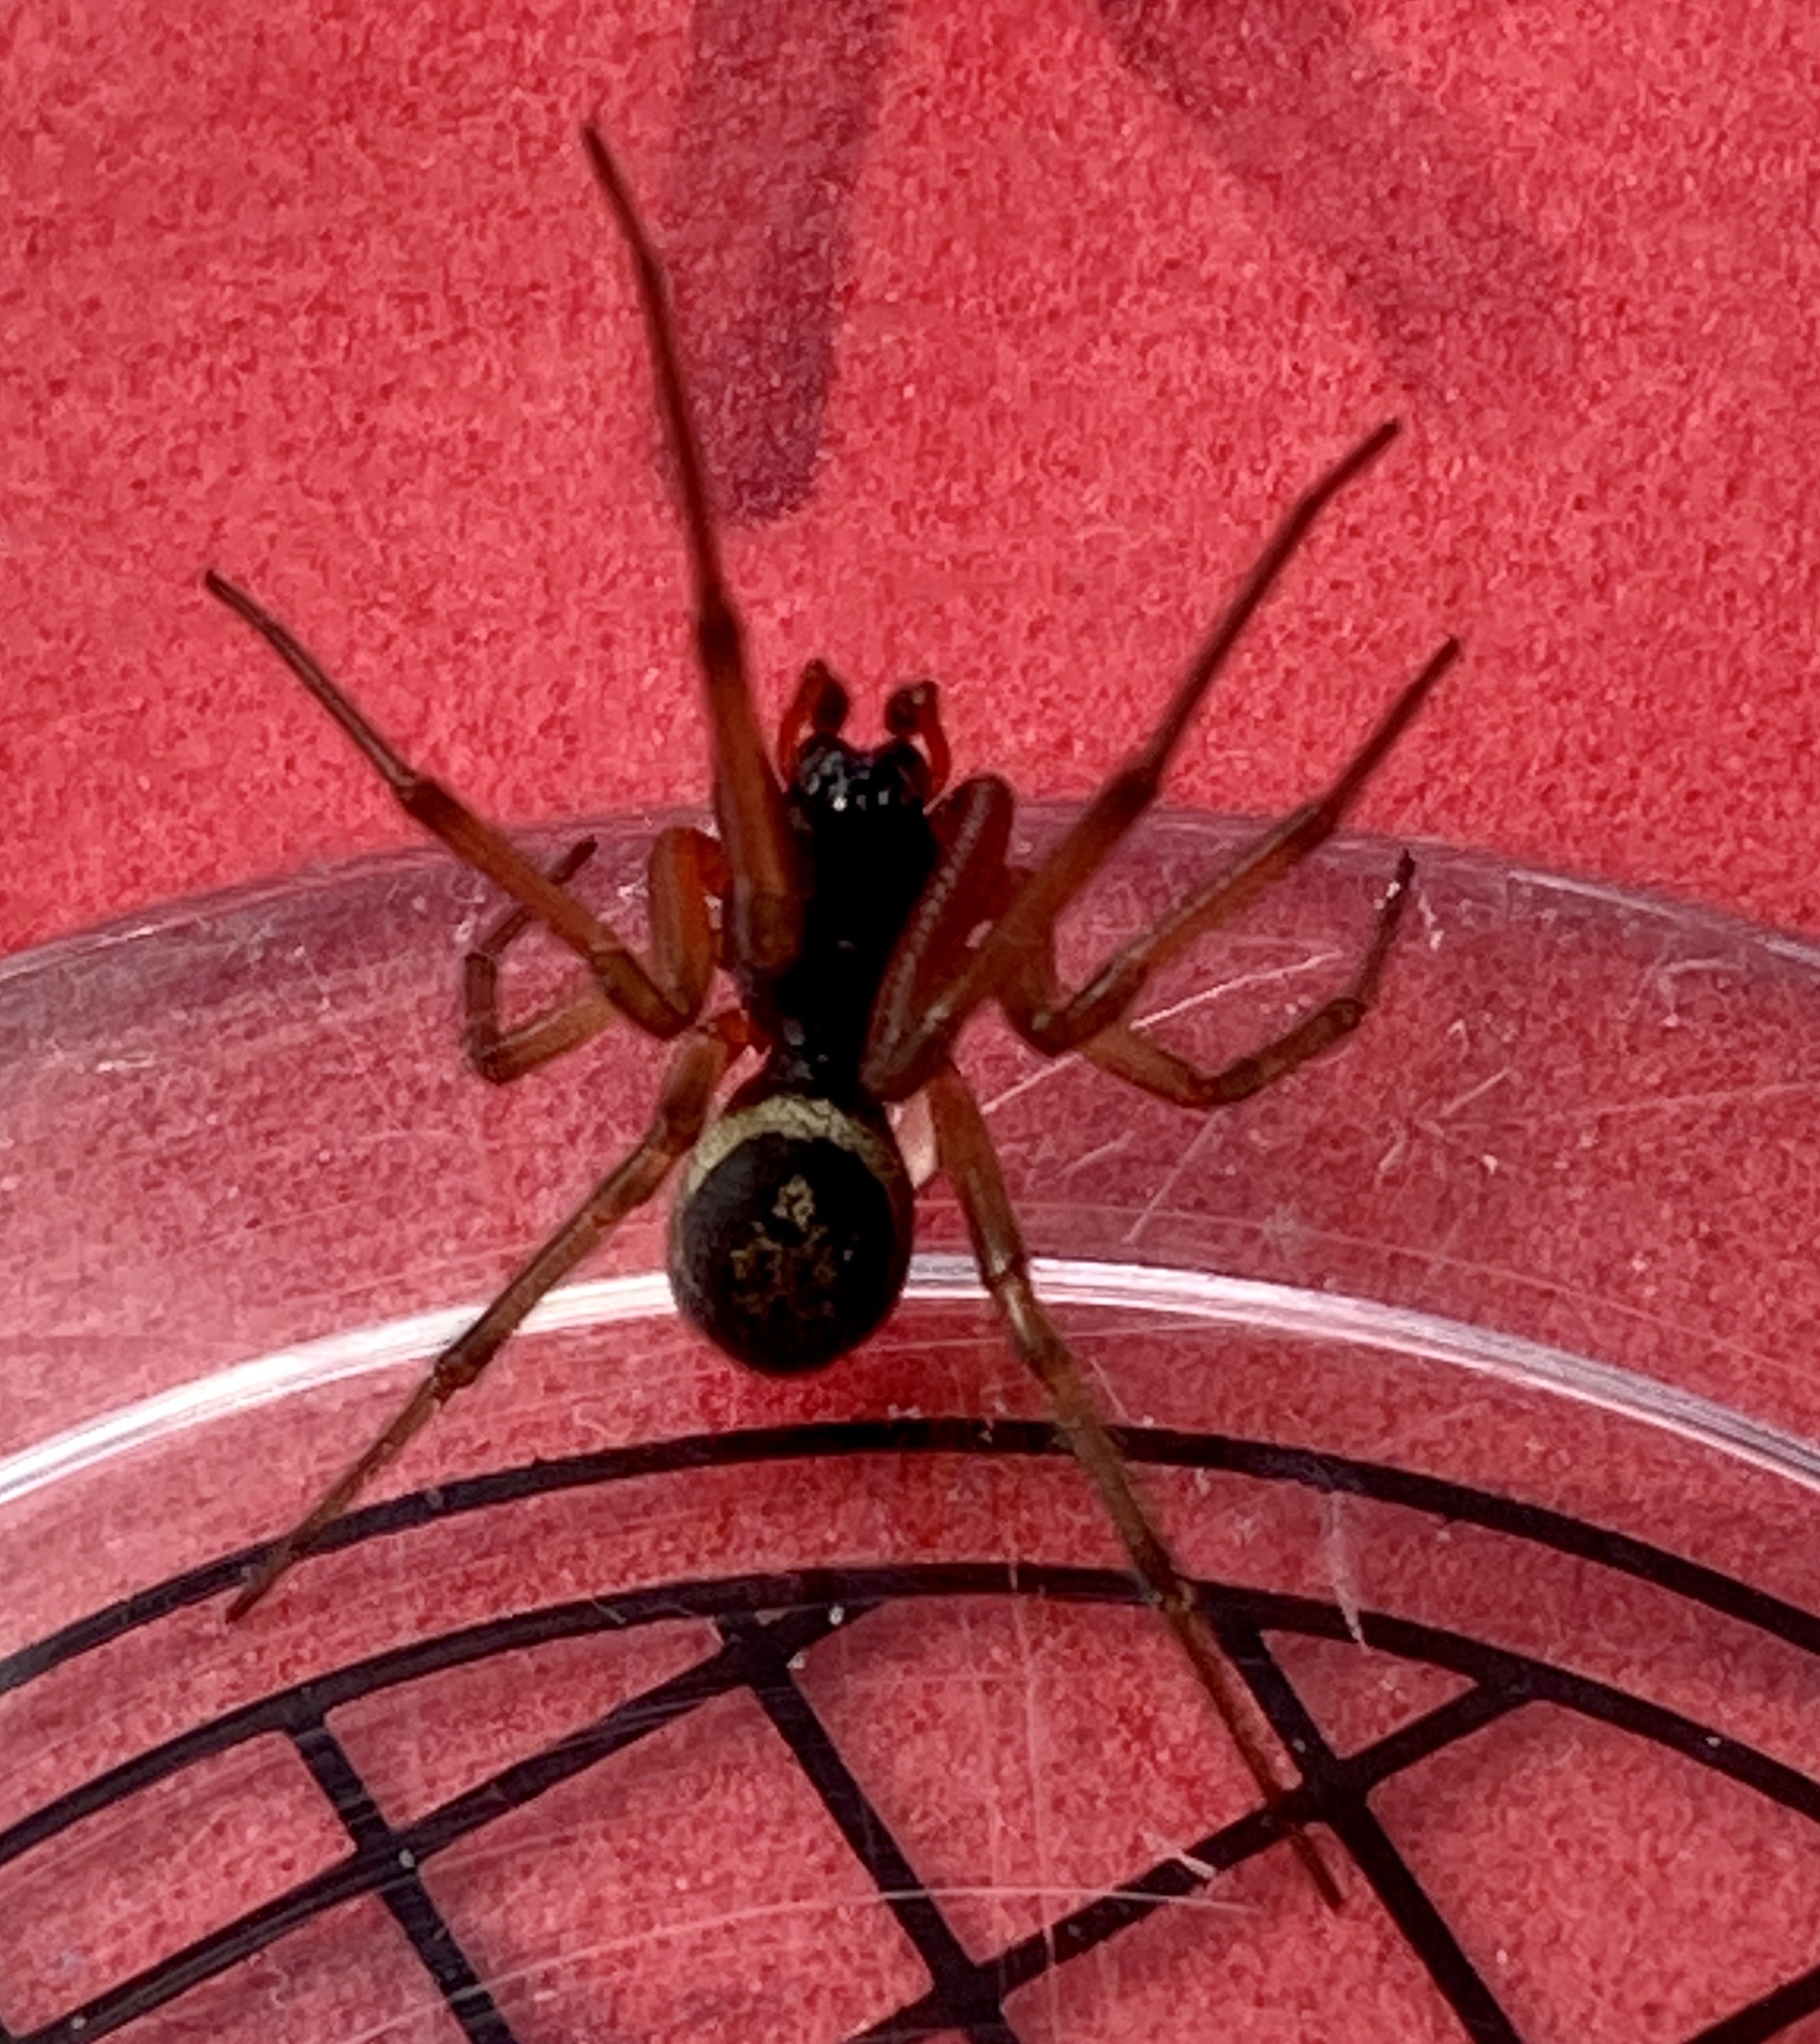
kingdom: Animalia
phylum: Arthropoda
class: Arachnida
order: Araneae
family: Theridiidae
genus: Steatoda
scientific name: Steatoda nobilis
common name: Cobweb weaver
